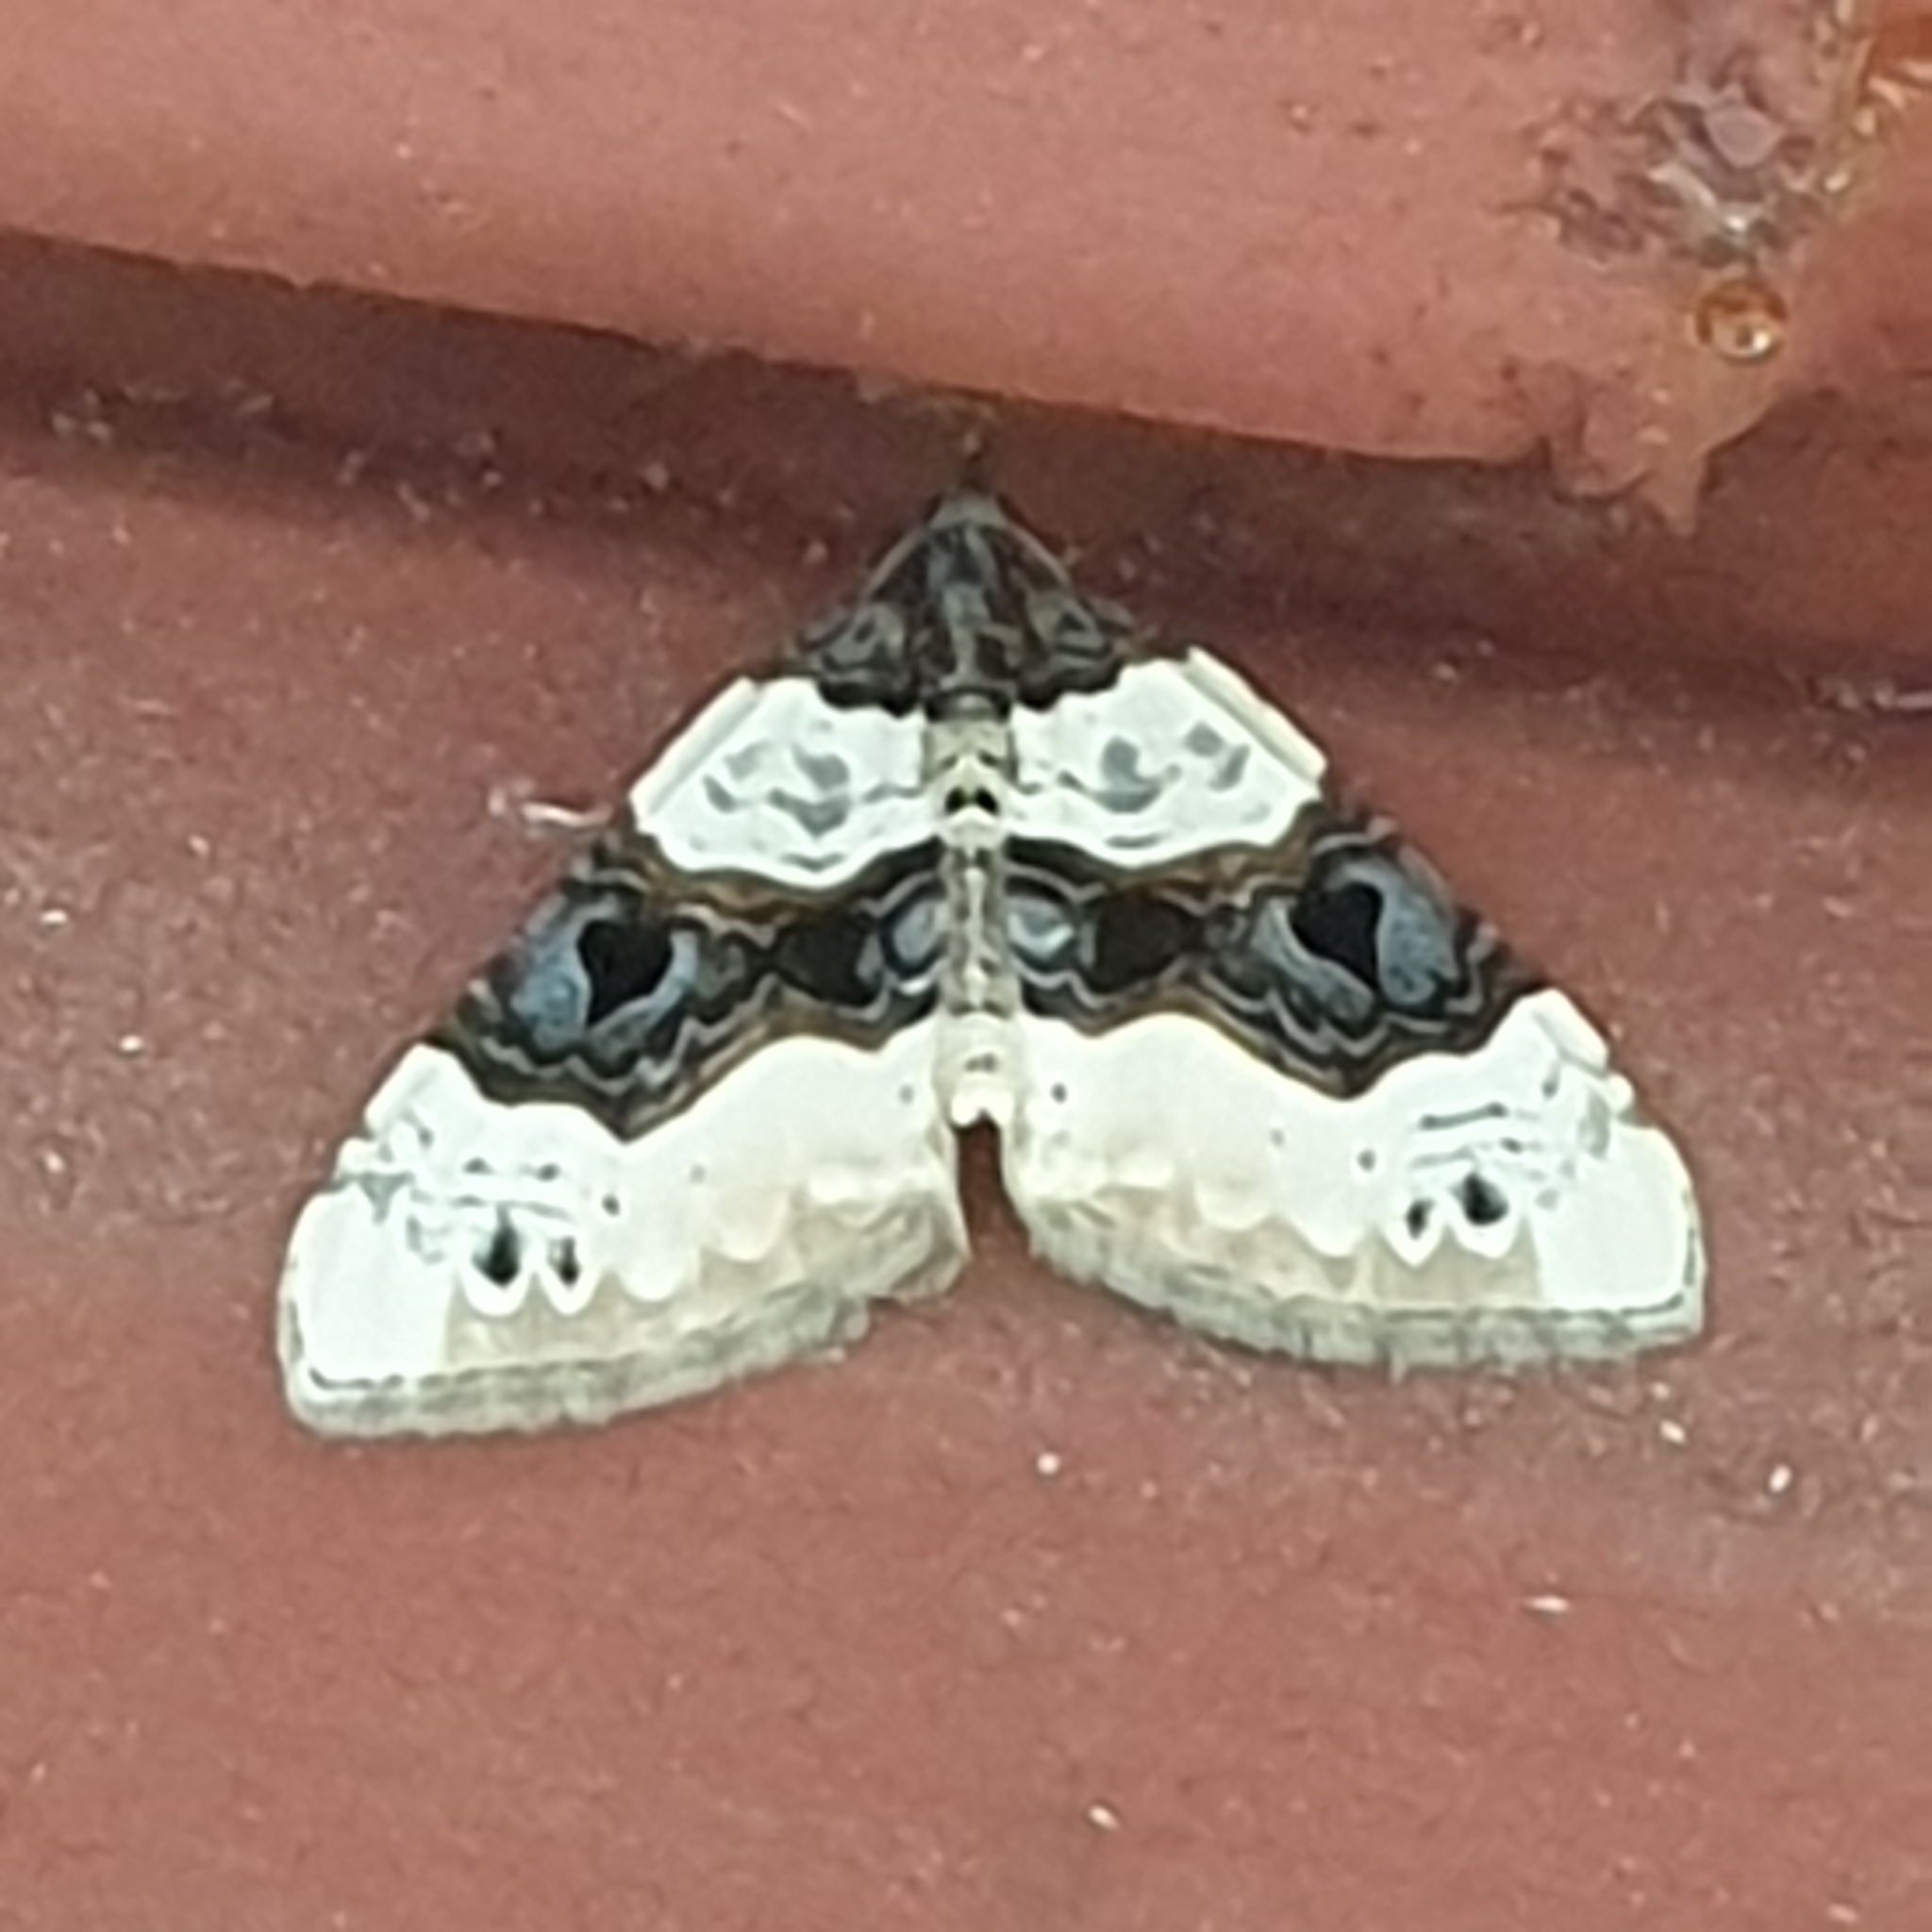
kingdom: Animalia
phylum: Arthropoda
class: Insecta
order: Lepidoptera
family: Geometridae
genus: Cosmorhoe
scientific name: Cosmorhoe ocellata
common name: Purple bar
